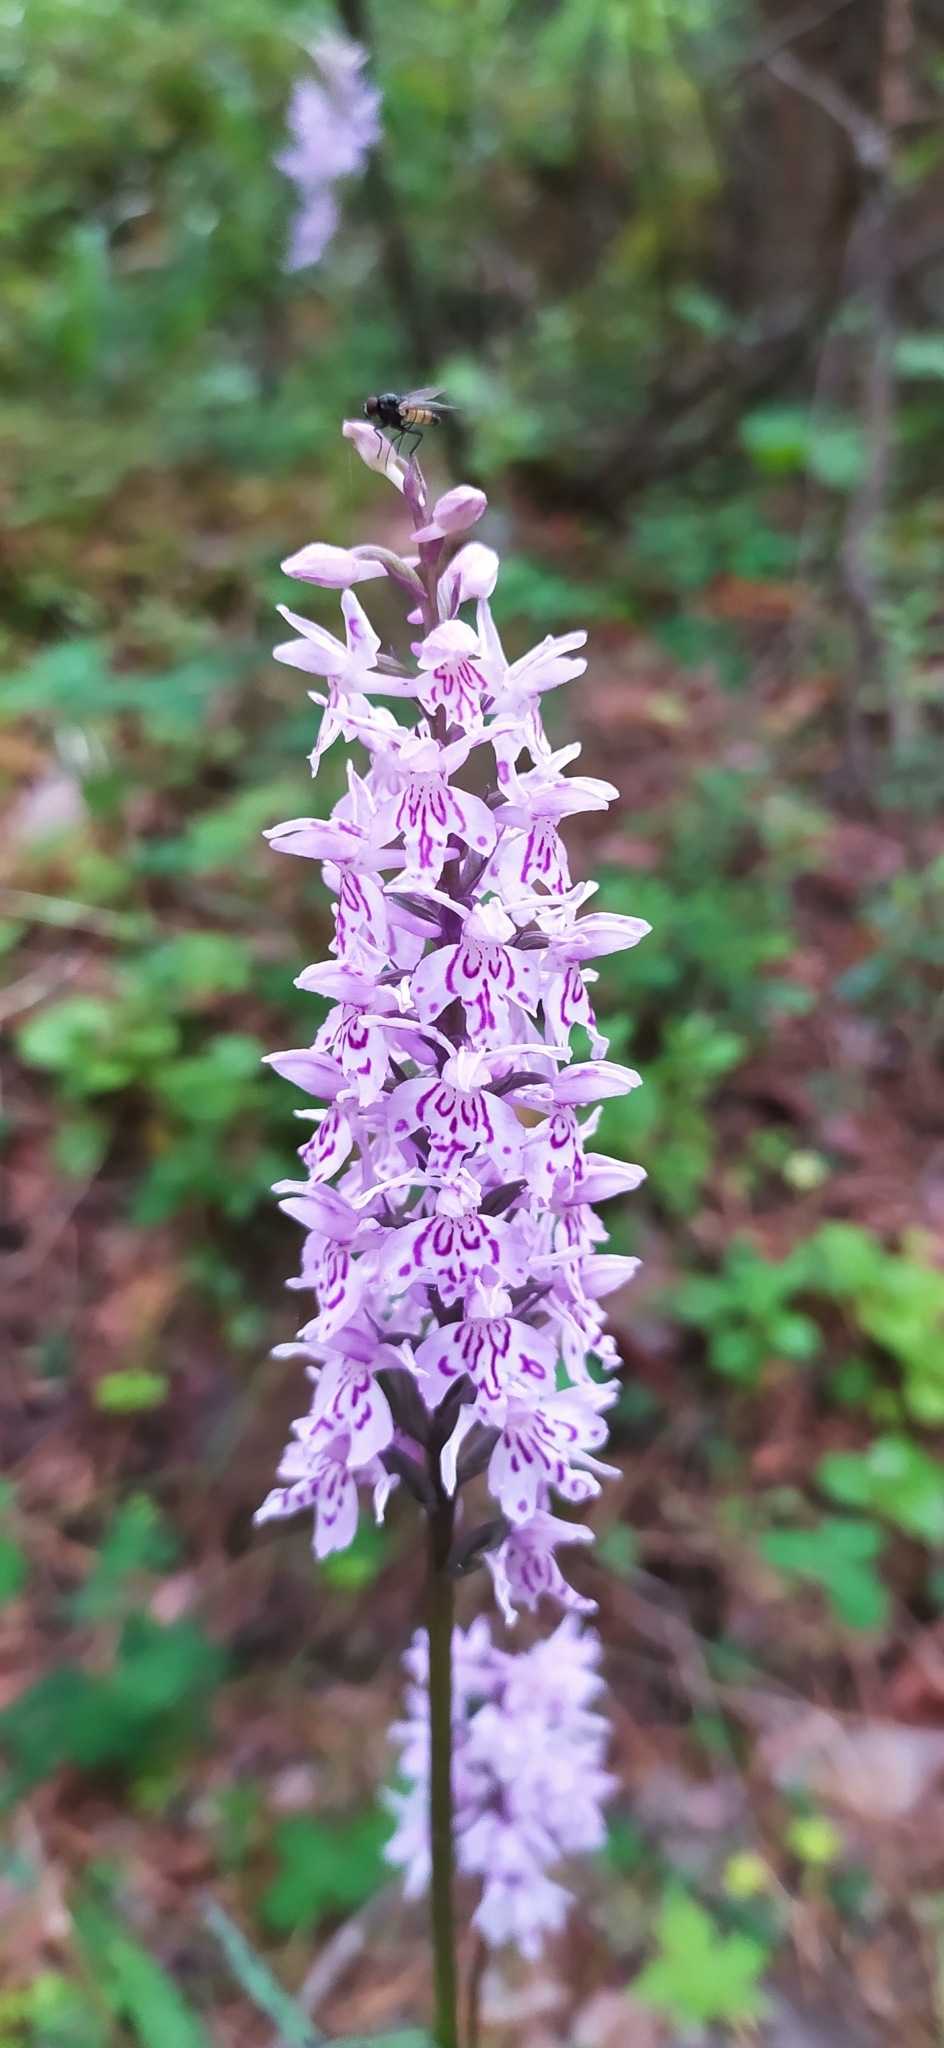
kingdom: Plantae
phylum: Tracheophyta
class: Liliopsida
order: Asparagales
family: Orchidaceae
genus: Dactylorhiza
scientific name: Dactylorhiza maculata
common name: Heath spotted-orchid
